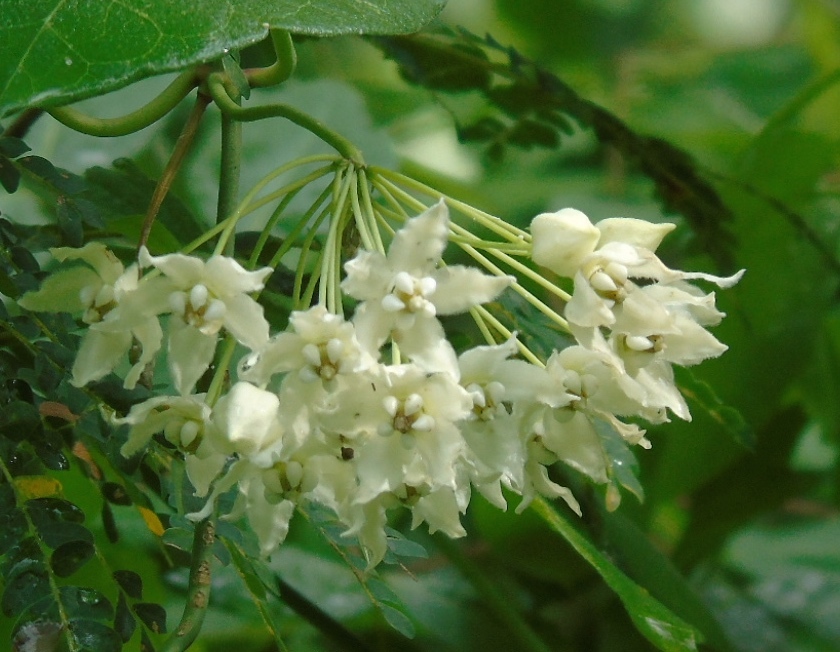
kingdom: Plantae
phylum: Tracheophyta
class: Magnoliopsida
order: Gentianales
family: Apocynaceae
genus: Funastrum
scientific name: Funastrum pannosum
